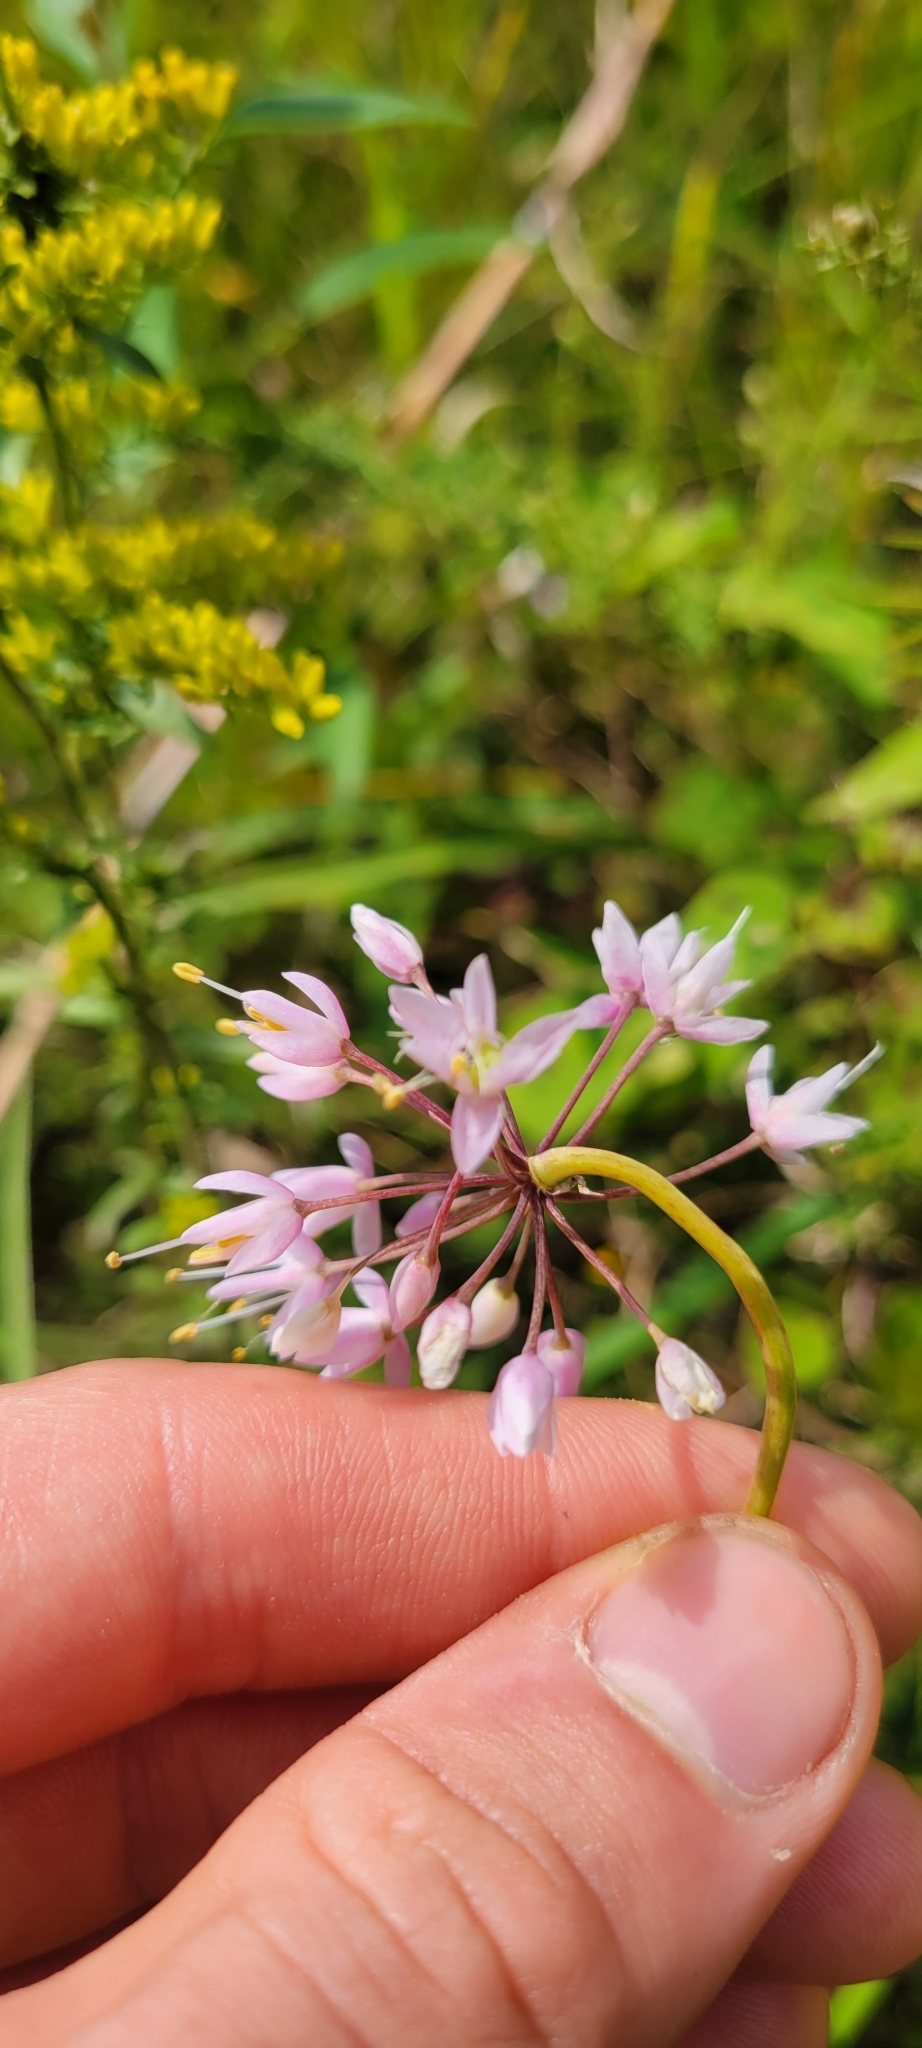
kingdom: Plantae
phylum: Tracheophyta
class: Liliopsida
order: Asparagales
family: Amaryllidaceae
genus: Allium
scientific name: Allium stellatum
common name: Autumn onion
